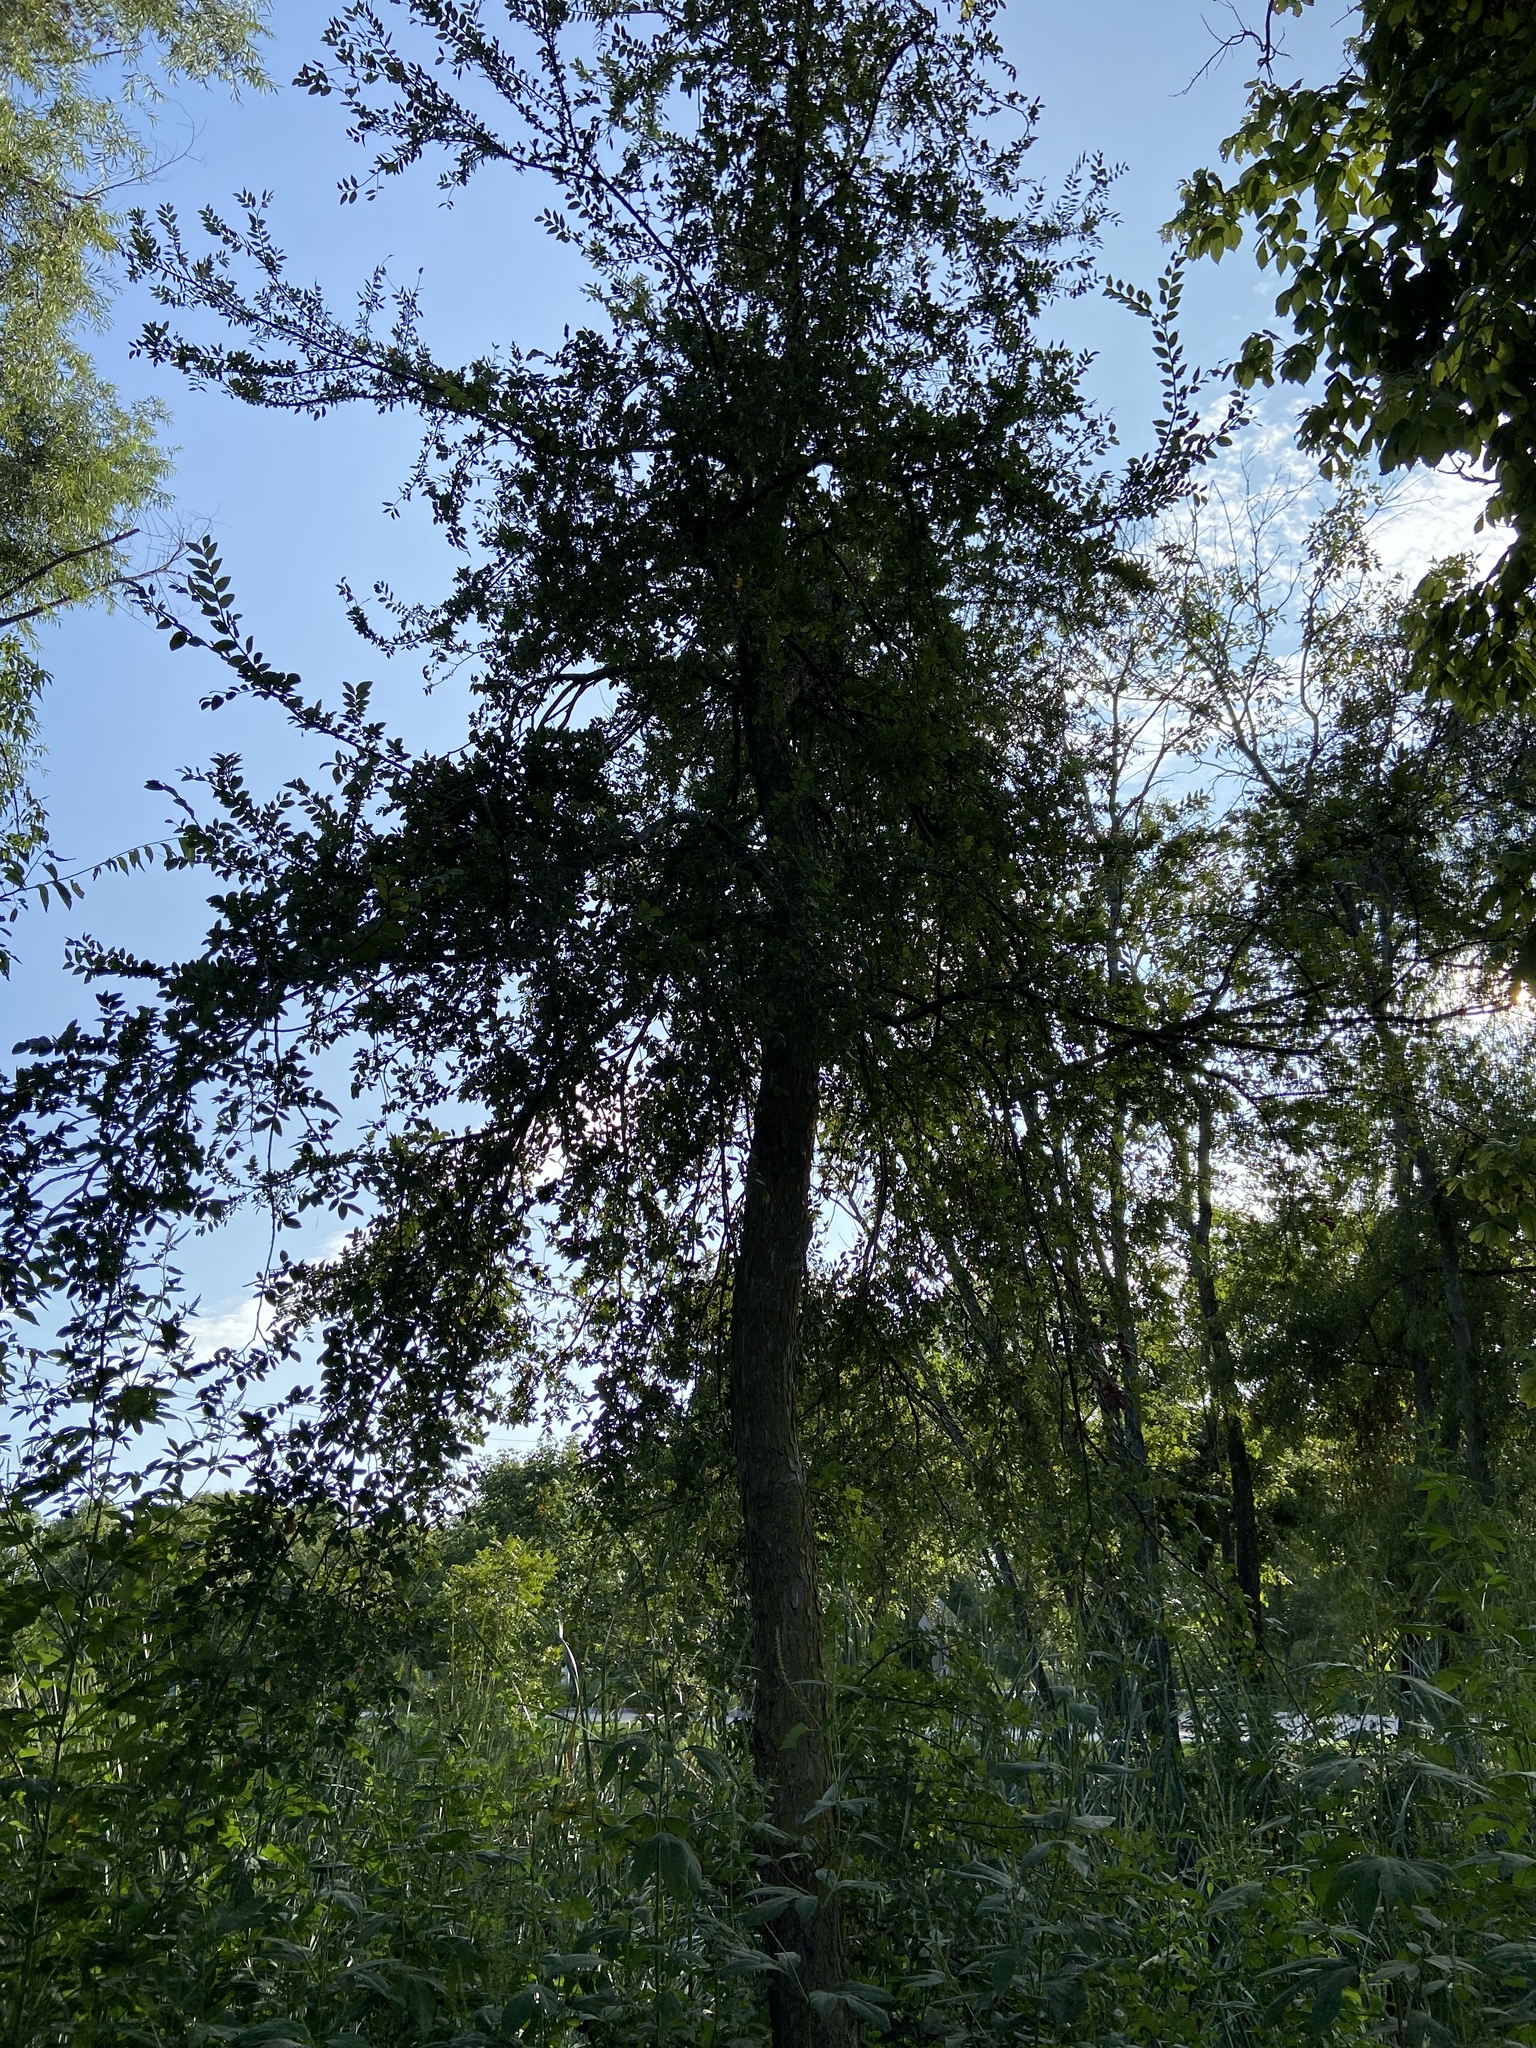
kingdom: Plantae
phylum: Tracheophyta
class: Magnoliopsida
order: Rosales
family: Ulmaceae
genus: Ulmus
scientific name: Ulmus crassifolia
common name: Basket elm
